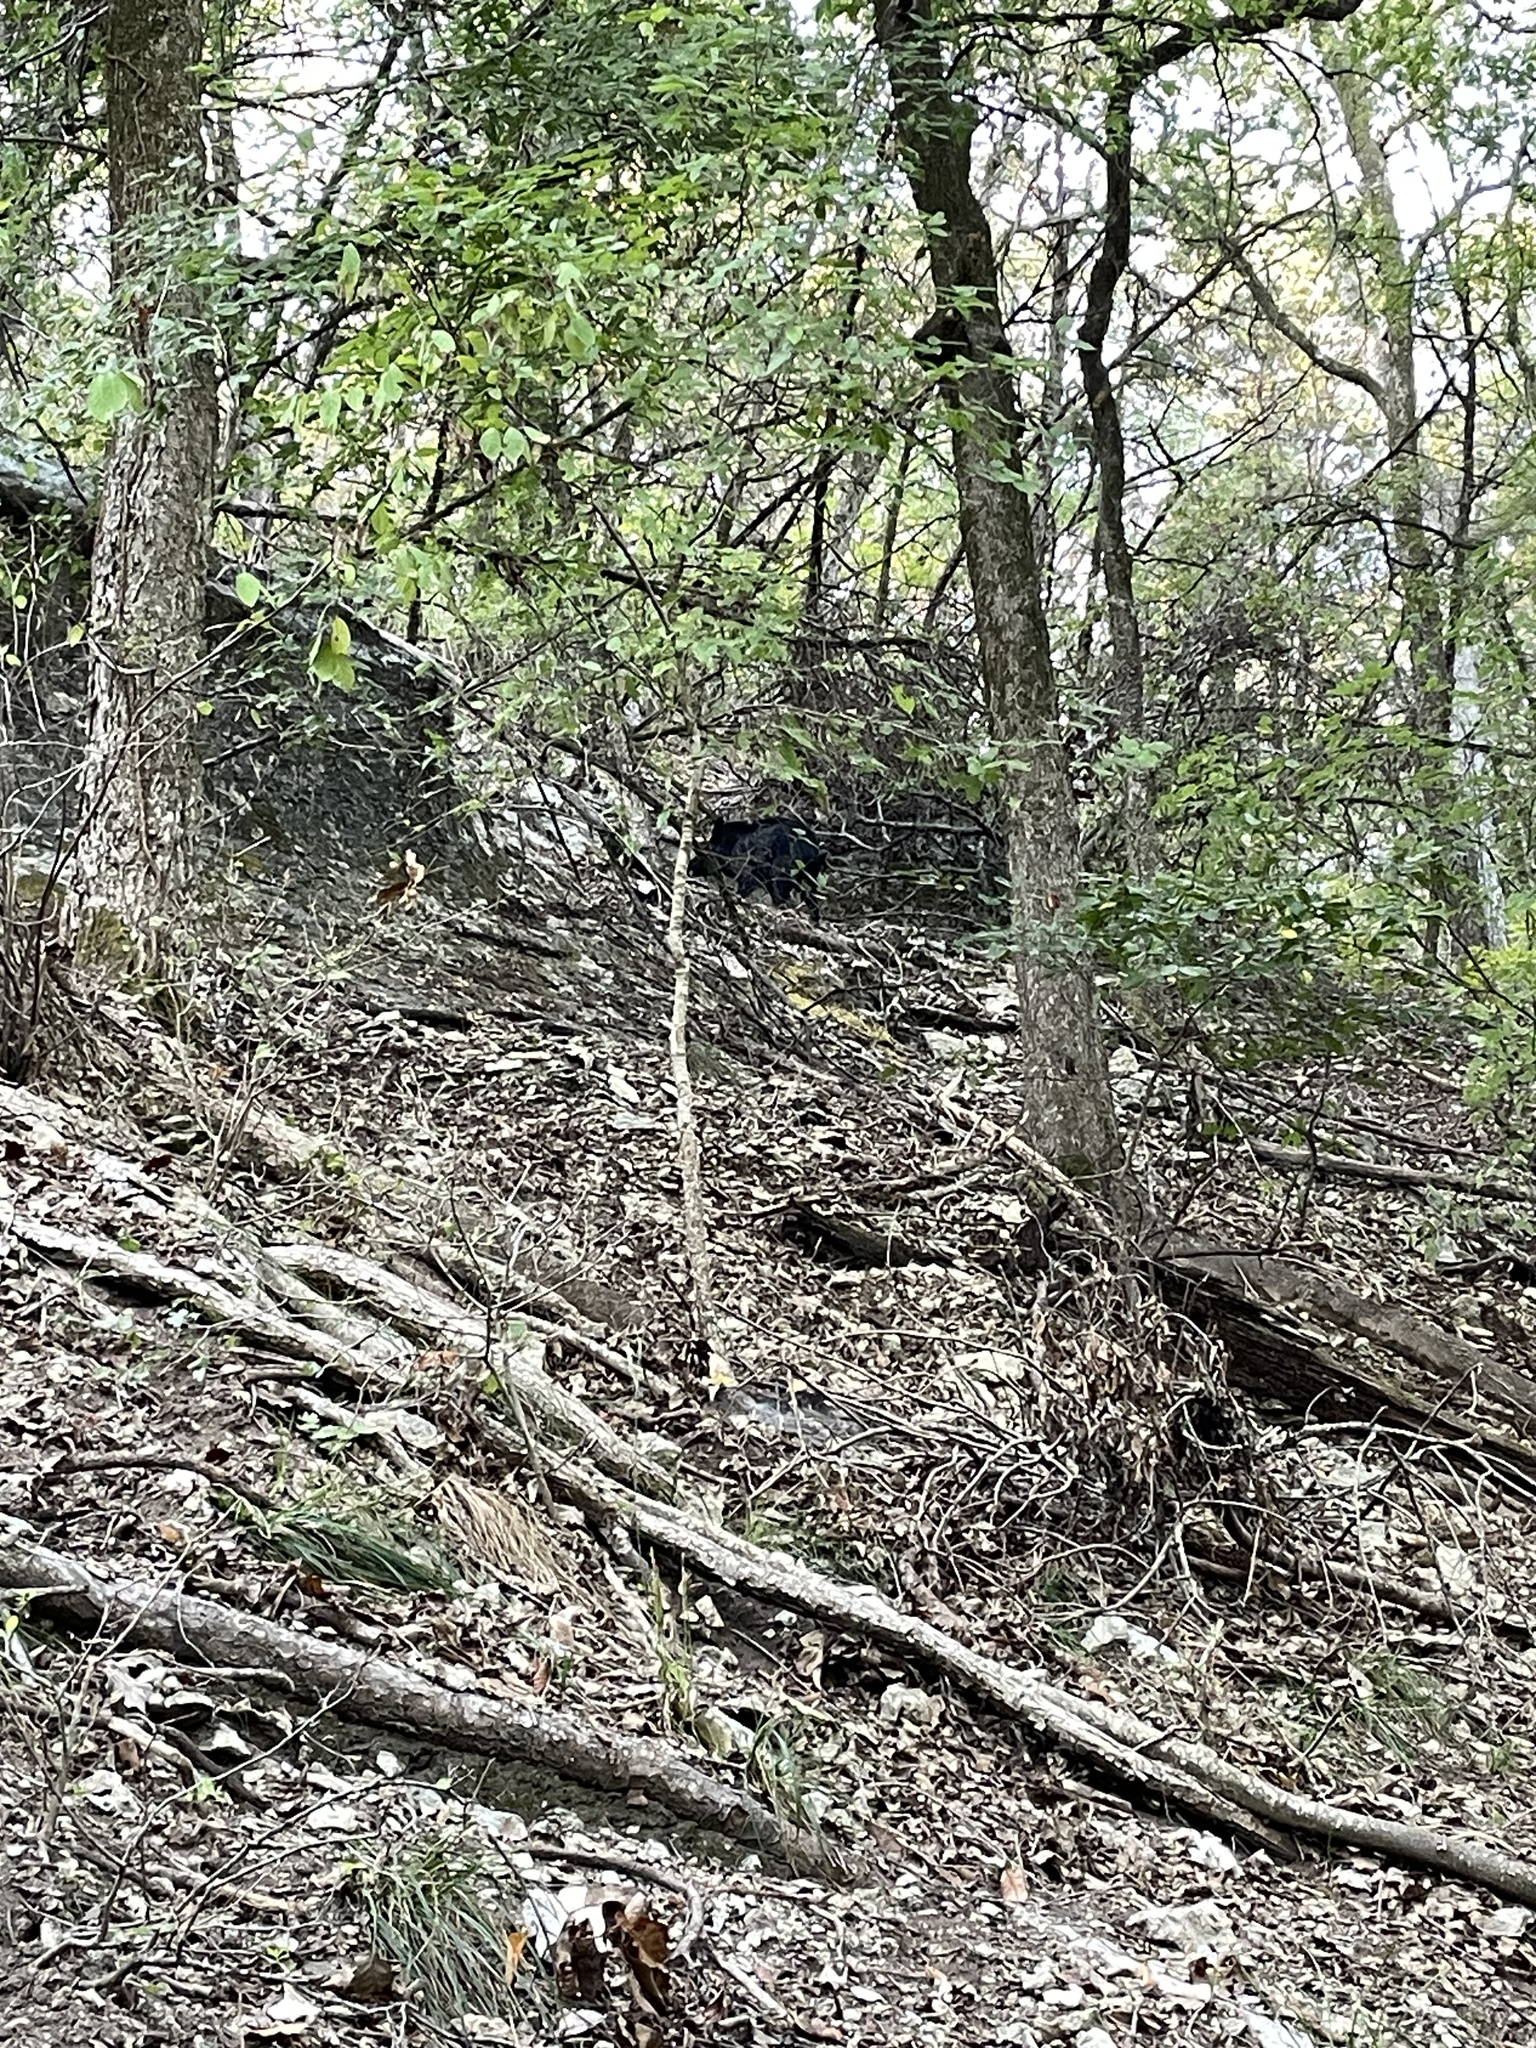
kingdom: Animalia
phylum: Chordata
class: Mammalia
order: Artiodactyla
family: Suidae
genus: Sus
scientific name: Sus scrofa
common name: Wild boar
